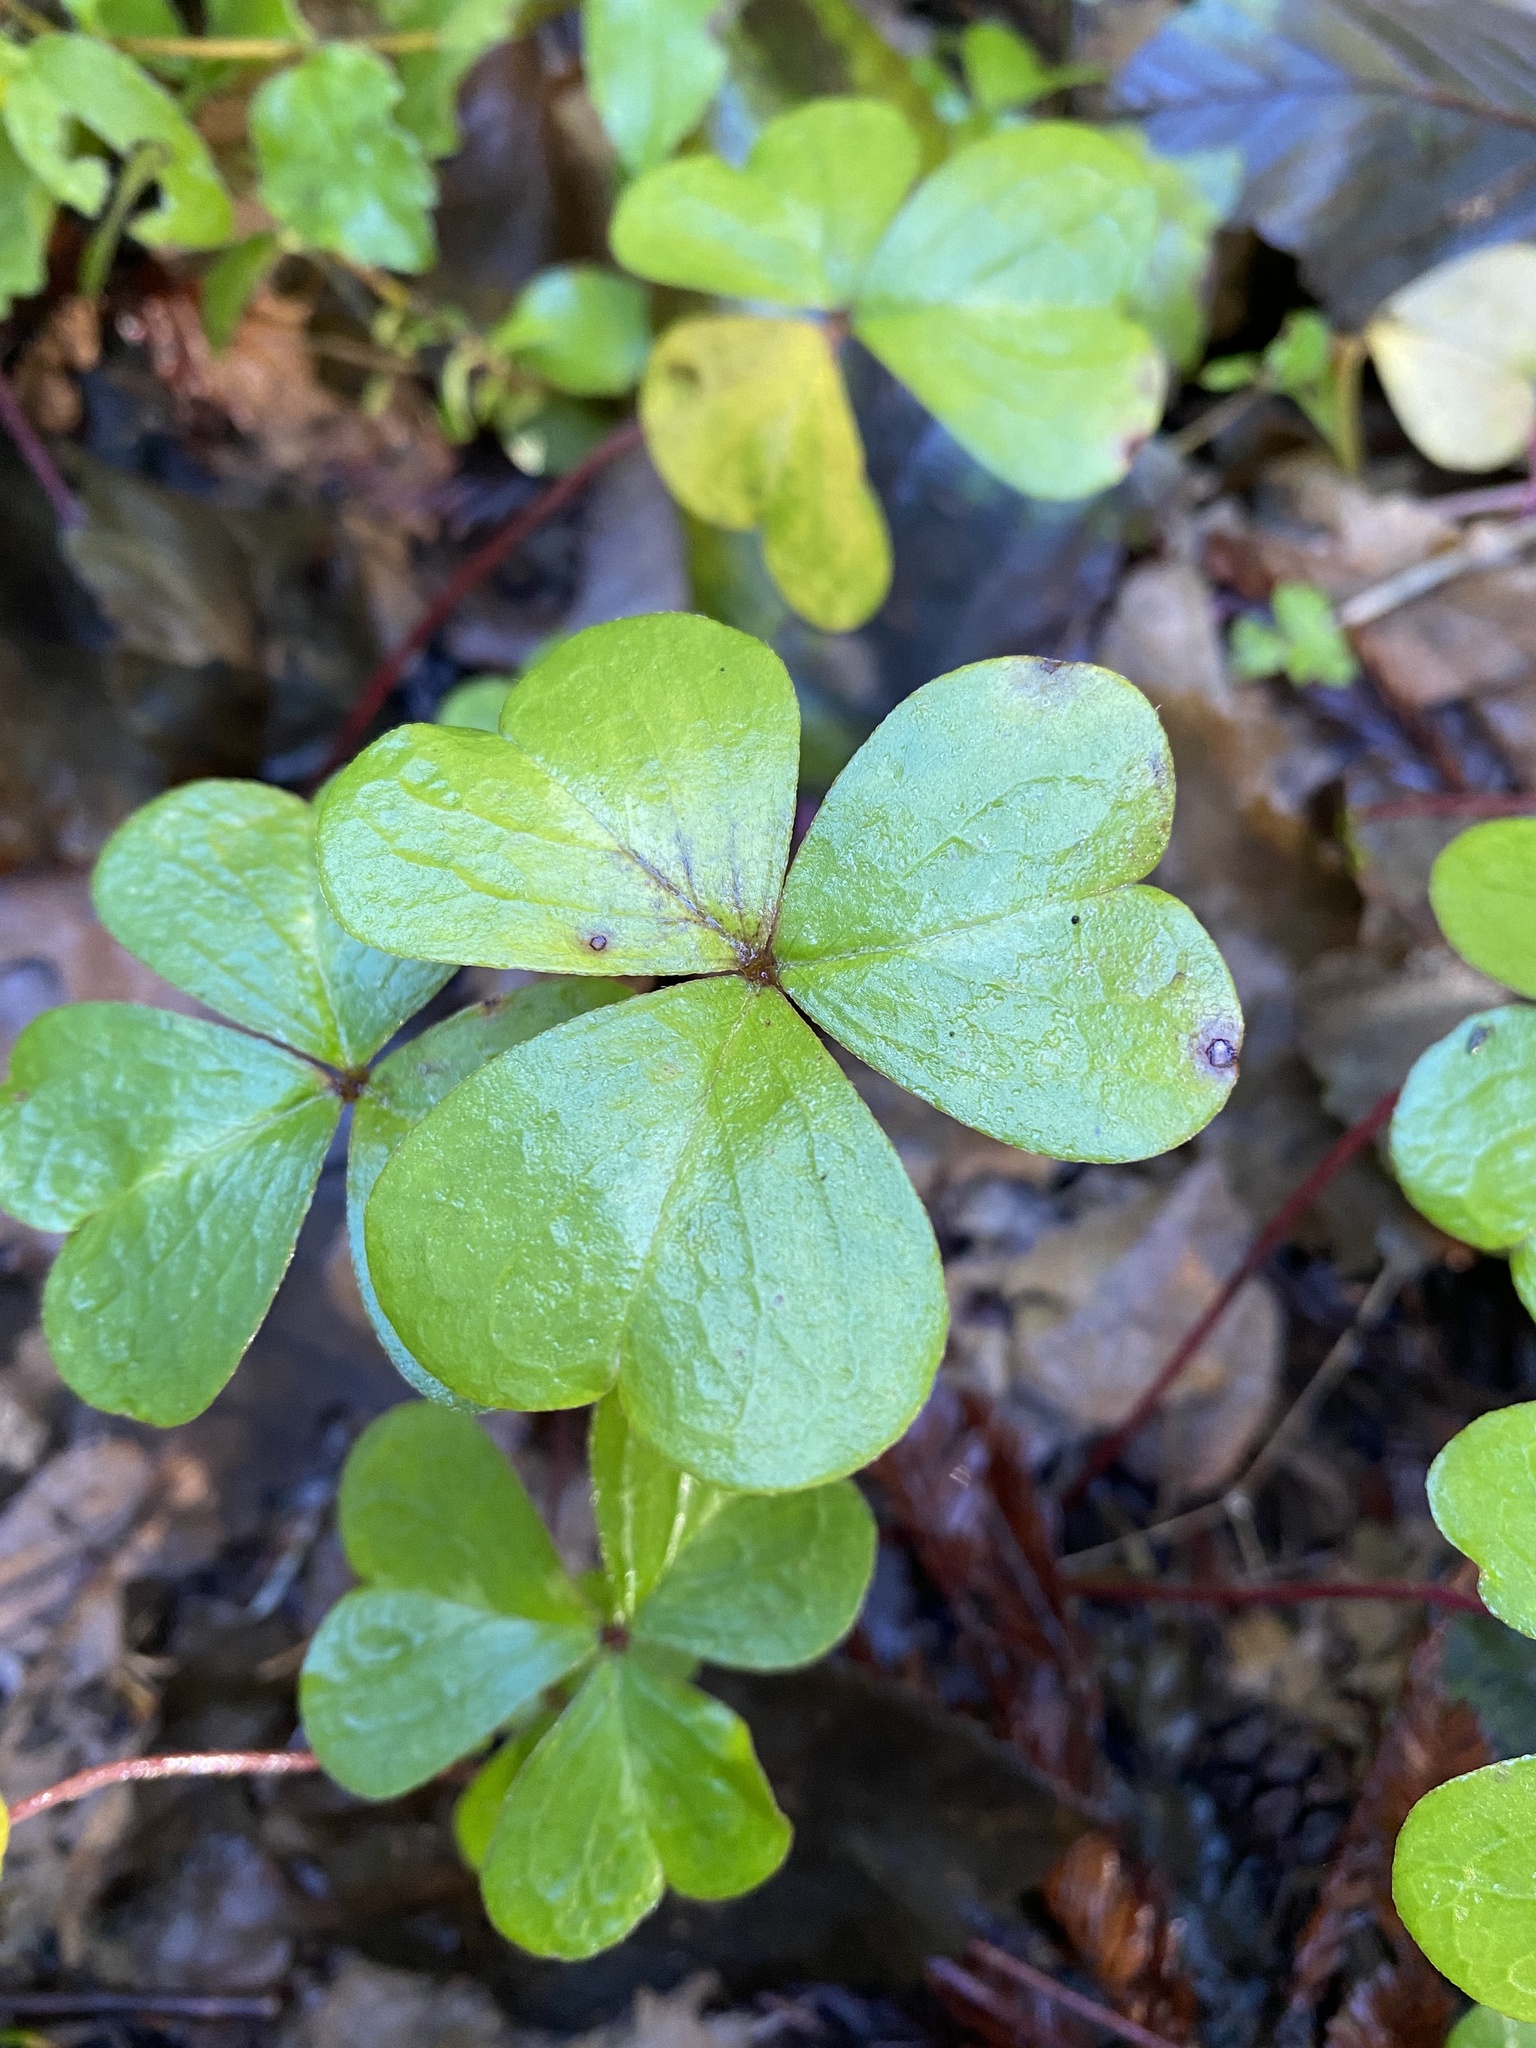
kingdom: Plantae
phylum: Tracheophyta
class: Magnoliopsida
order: Oxalidales
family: Oxalidaceae
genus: Oxalis
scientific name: Oxalis oregana
